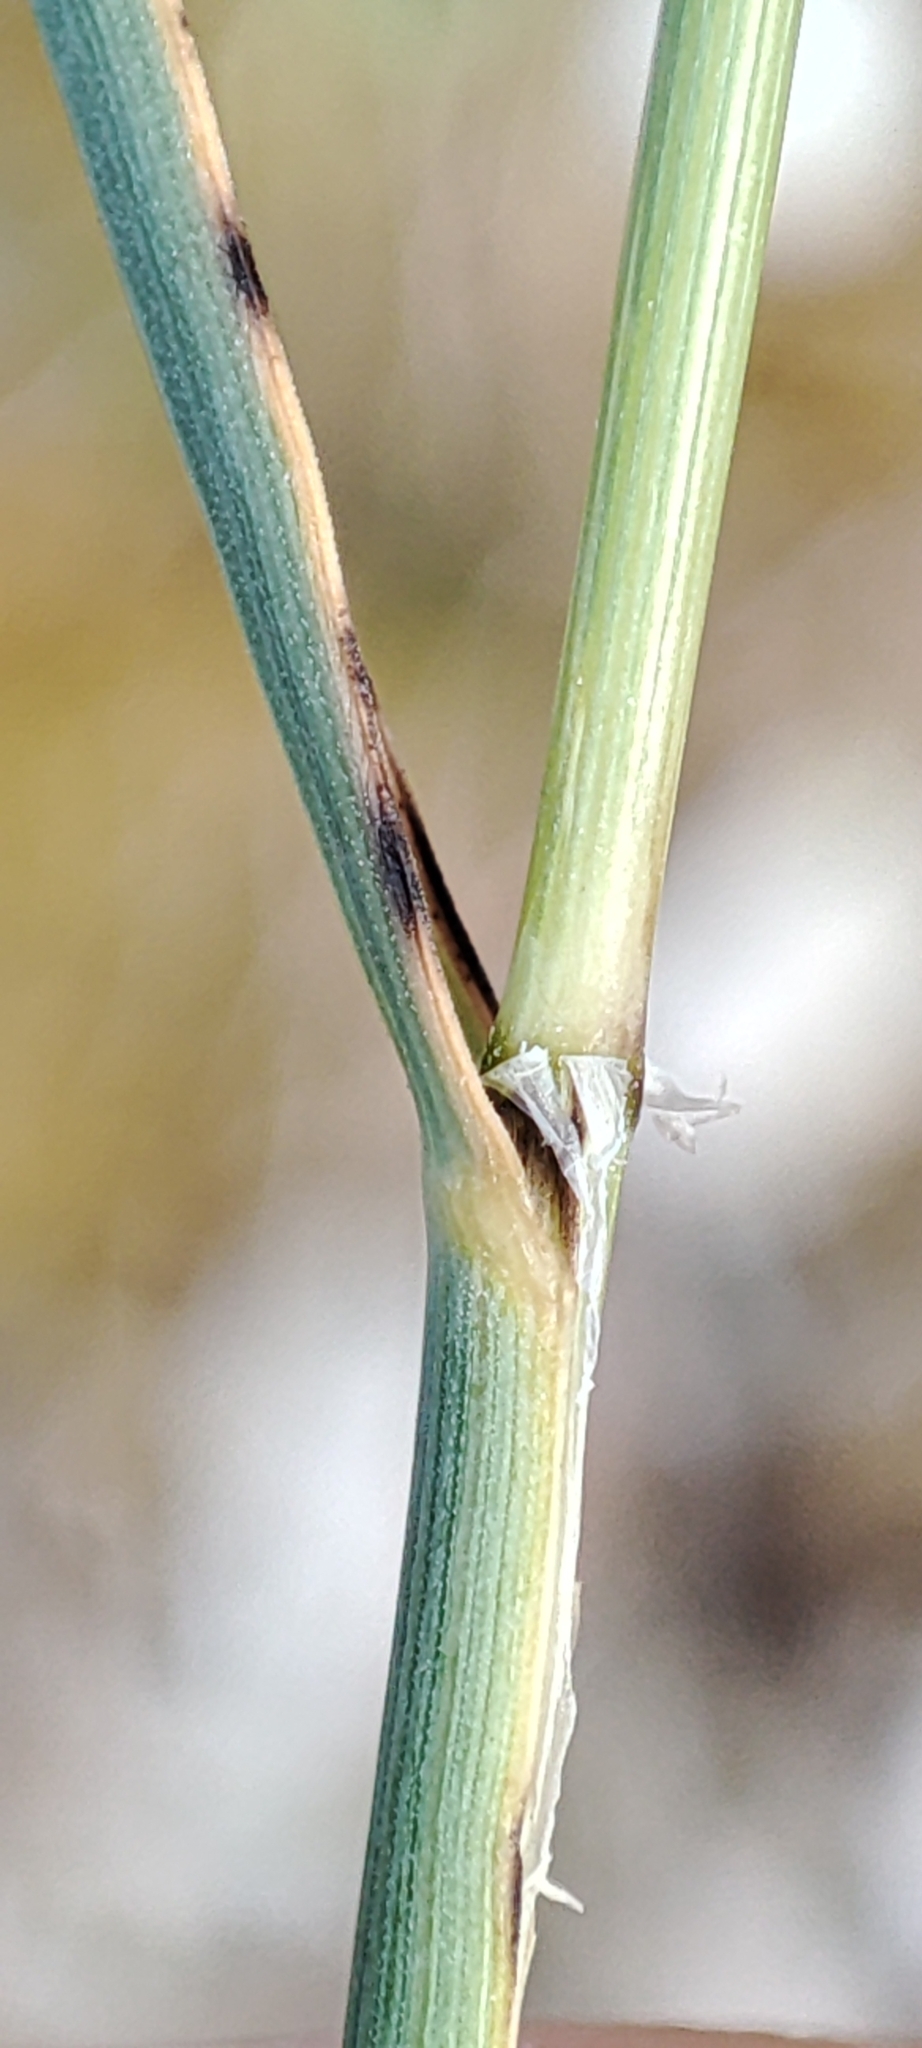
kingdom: Plantae
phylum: Tracheophyta
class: Liliopsida
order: Poales
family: Poaceae
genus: Melica
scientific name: Melica ciliata
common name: Hairy melicgrass
